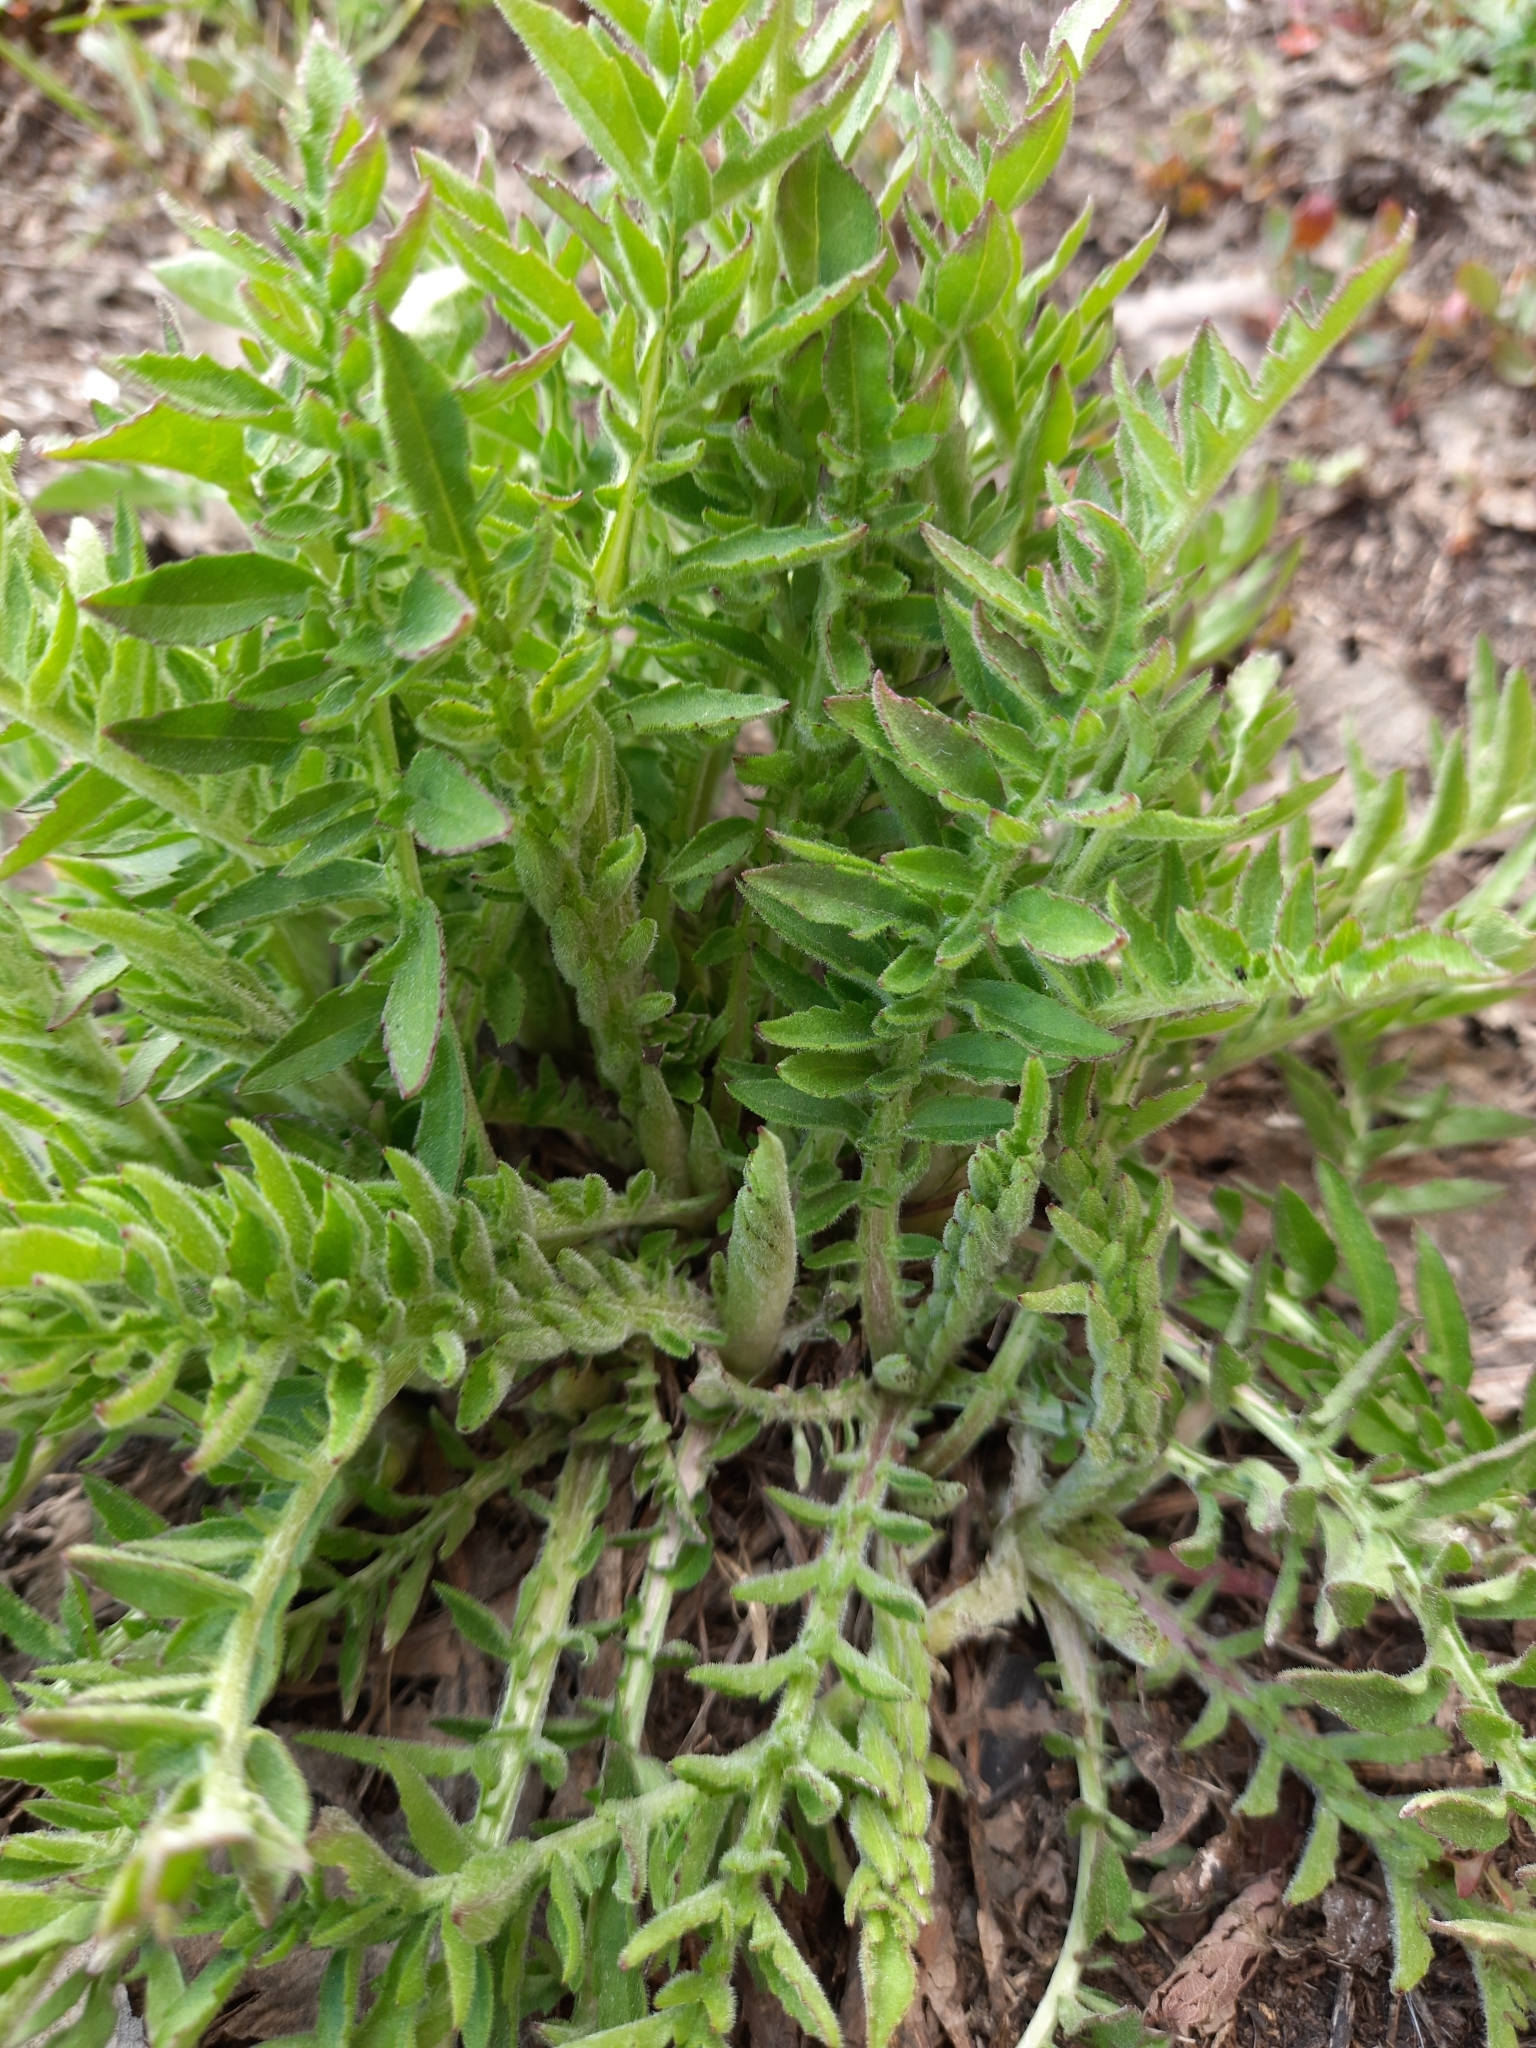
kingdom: Plantae
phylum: Tracheophyta
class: Magnoliopsida
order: Asterales
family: Asteraceae
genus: Centaurea
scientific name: Centaurea scabiosa
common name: Greater knapweed
